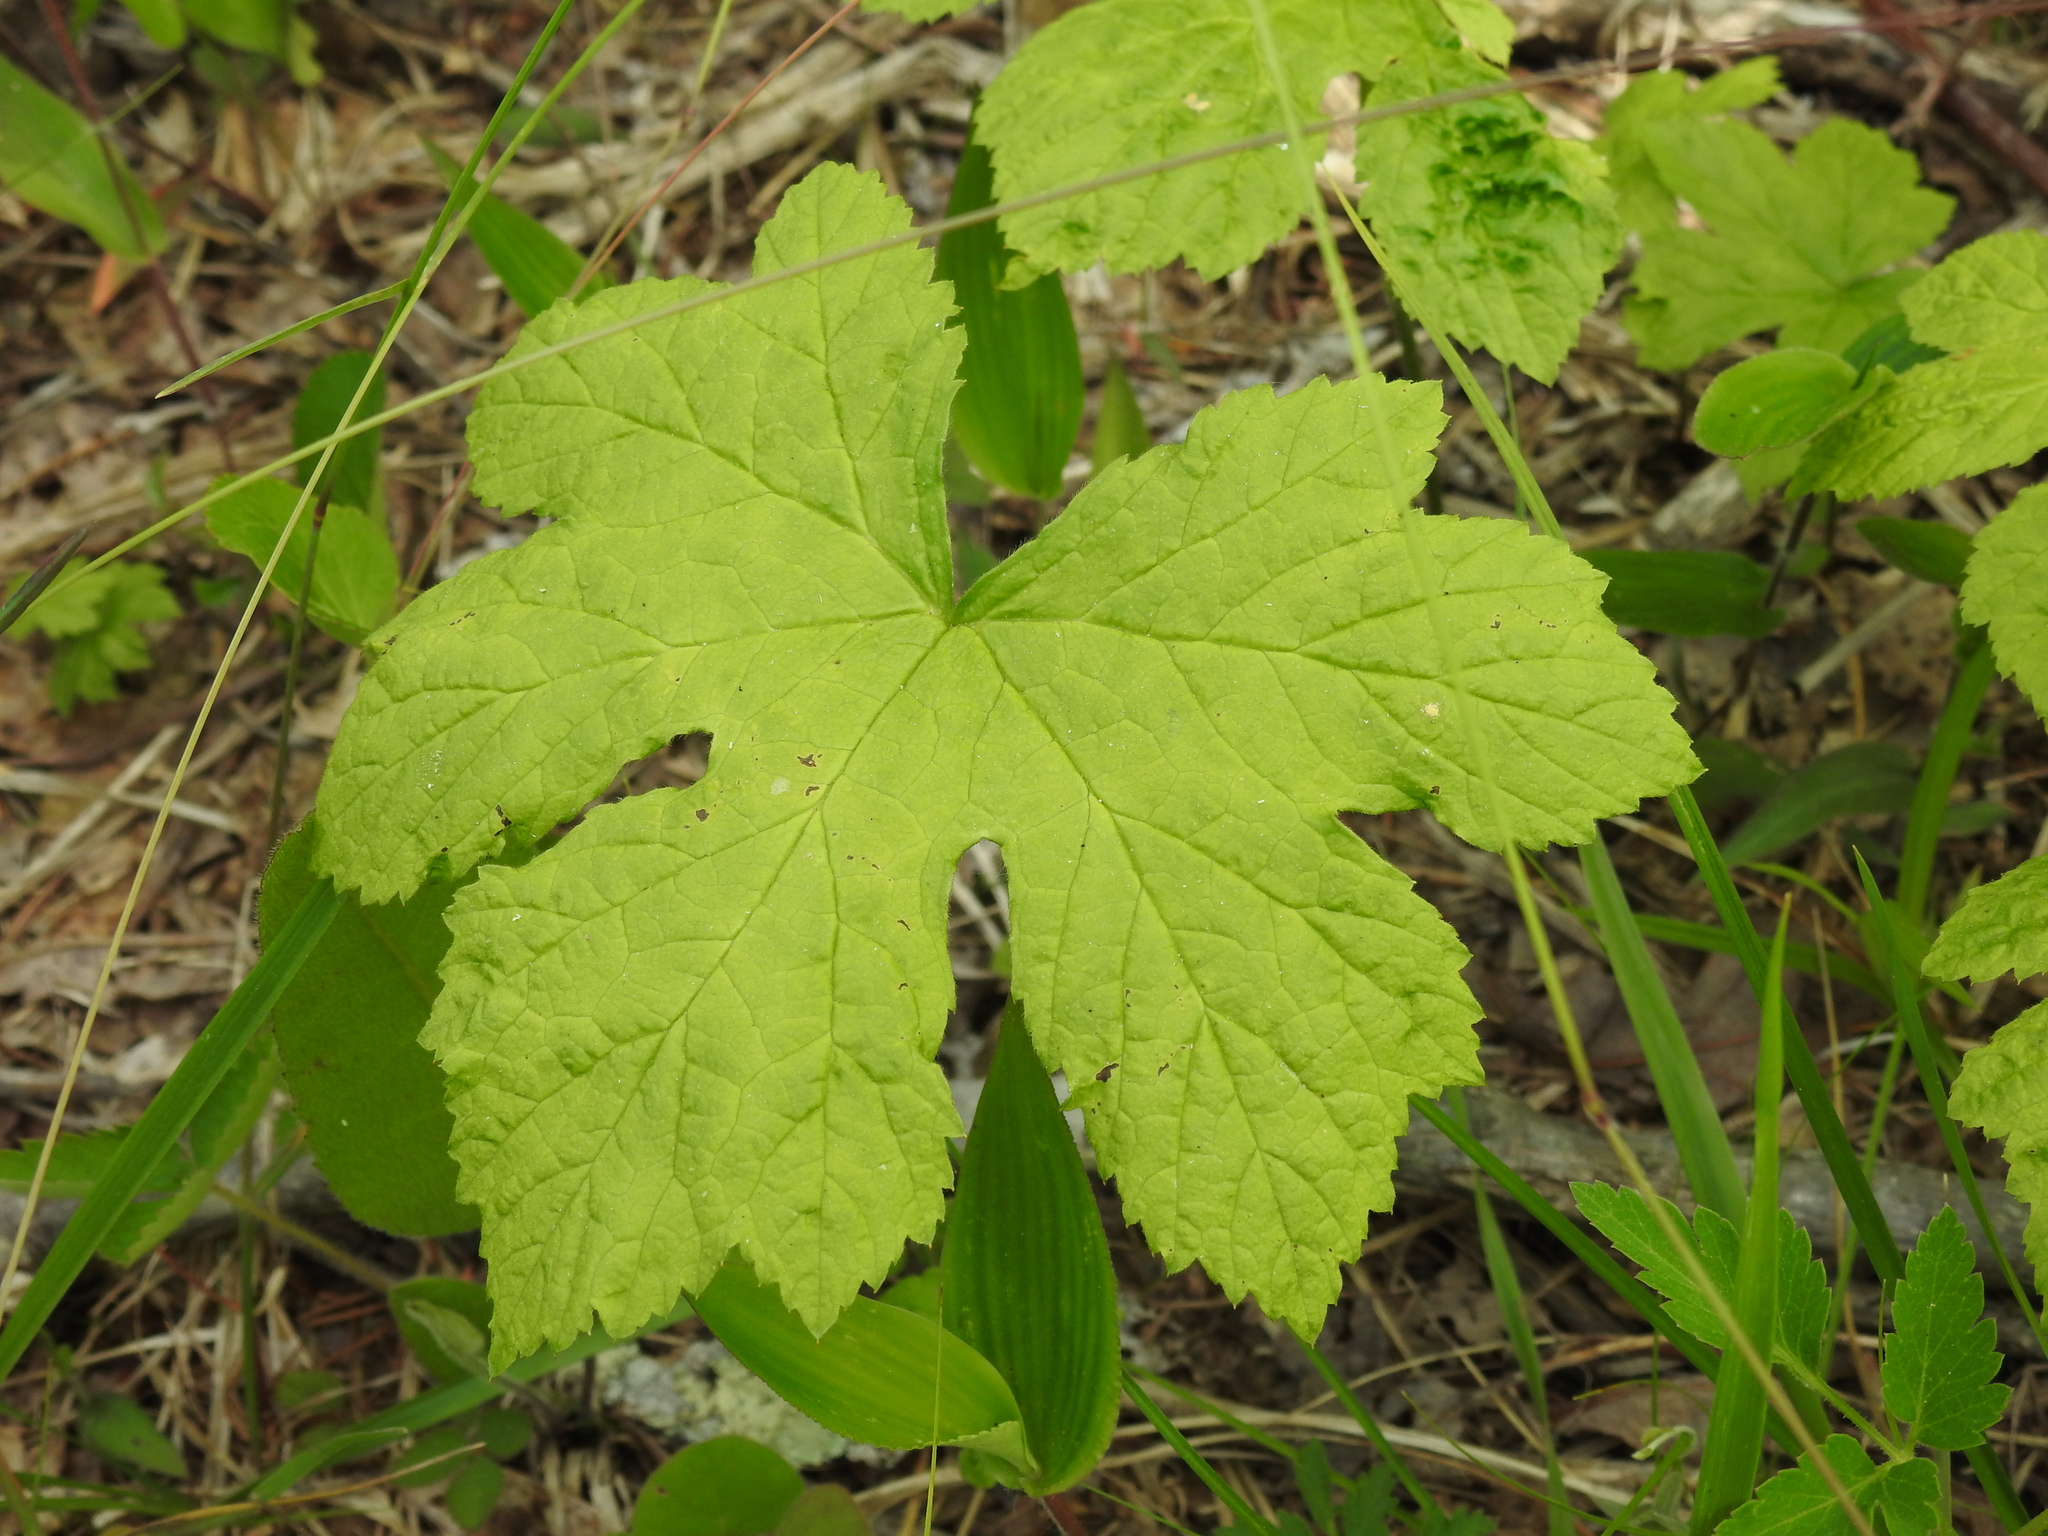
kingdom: Plantae
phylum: Tracheophyta
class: Magnoliopsida
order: Ranunculales
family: Ranunculaceae
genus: Hydrastis
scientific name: Hydrastis canadensis
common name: Goldenseal
